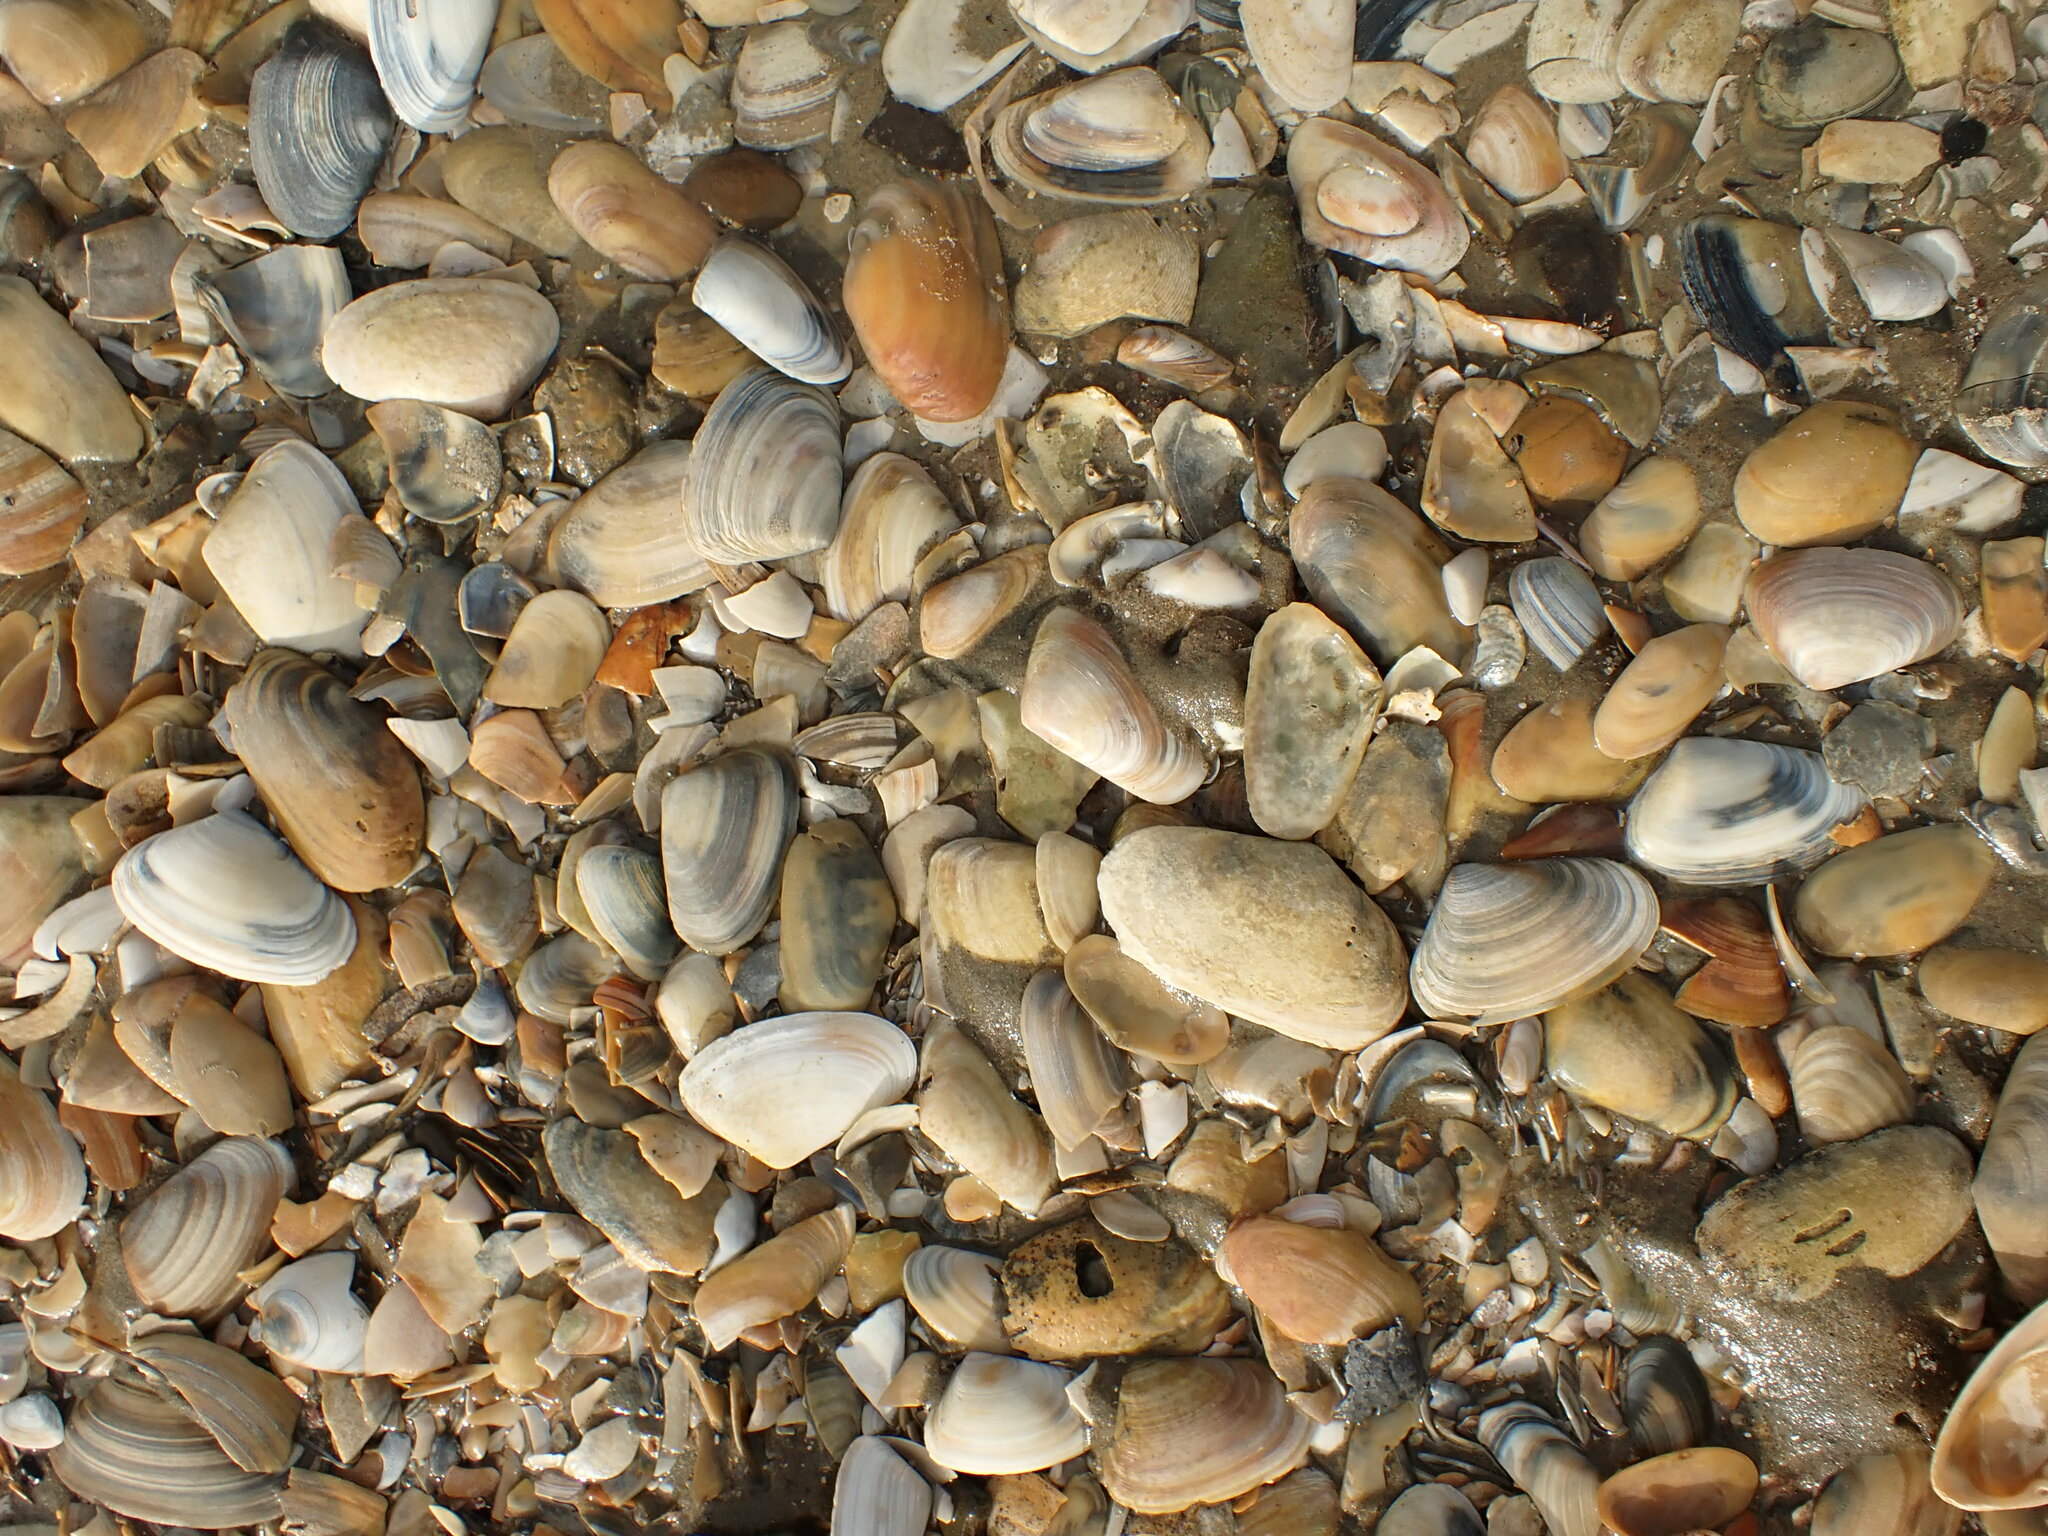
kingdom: Animalia
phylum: Mollusca
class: Bivalvia
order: Venerida
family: Mesodesmatidae
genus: Paphies
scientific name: Paphies subtriangulata
